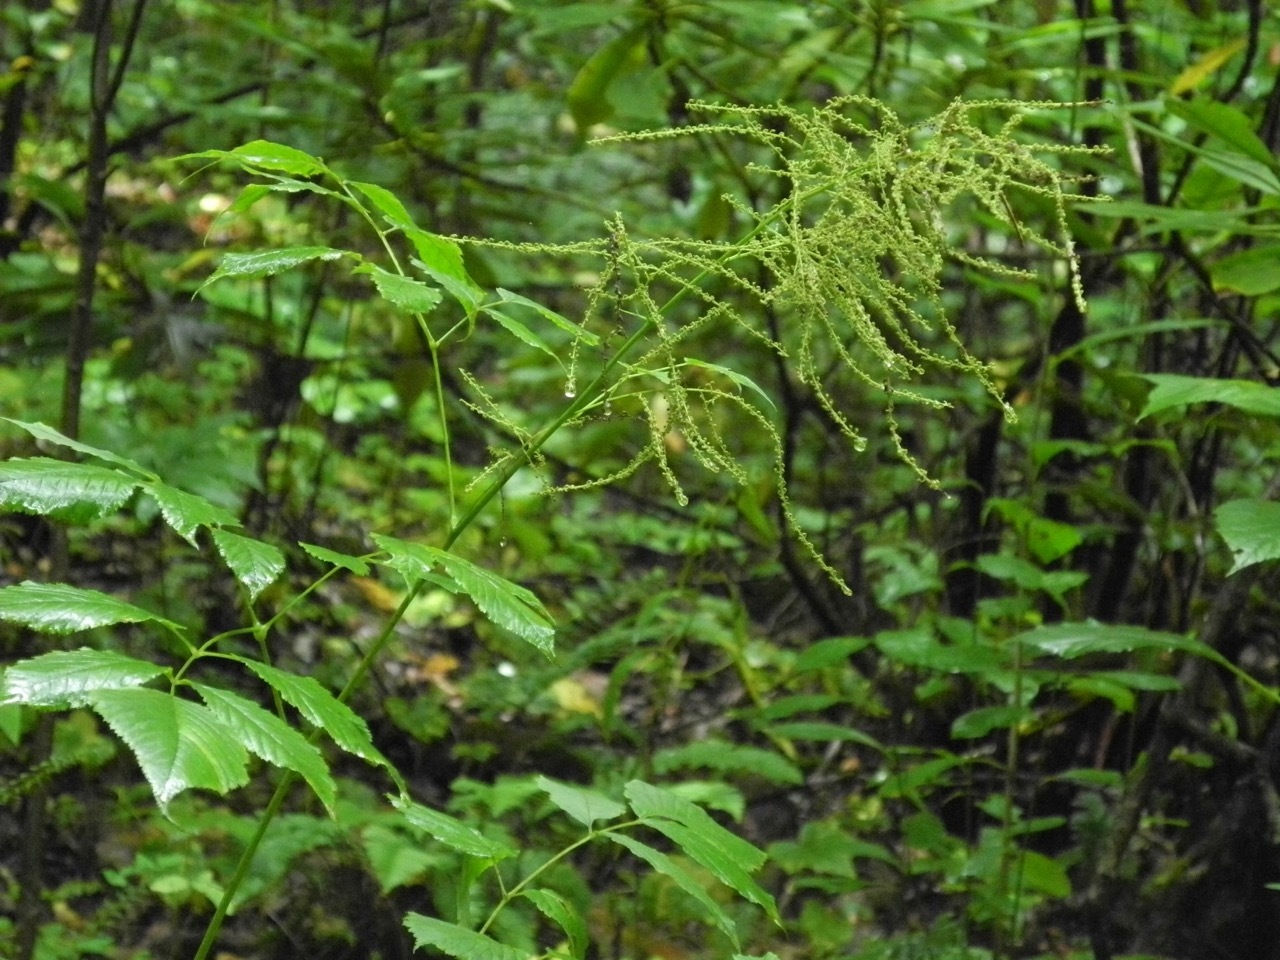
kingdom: Plantae
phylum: Tracheophyta
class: Magnoliopsida
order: Rosales
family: Rosaceae
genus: Aruncus
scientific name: Aruncus dioicus
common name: Buck's-beard
